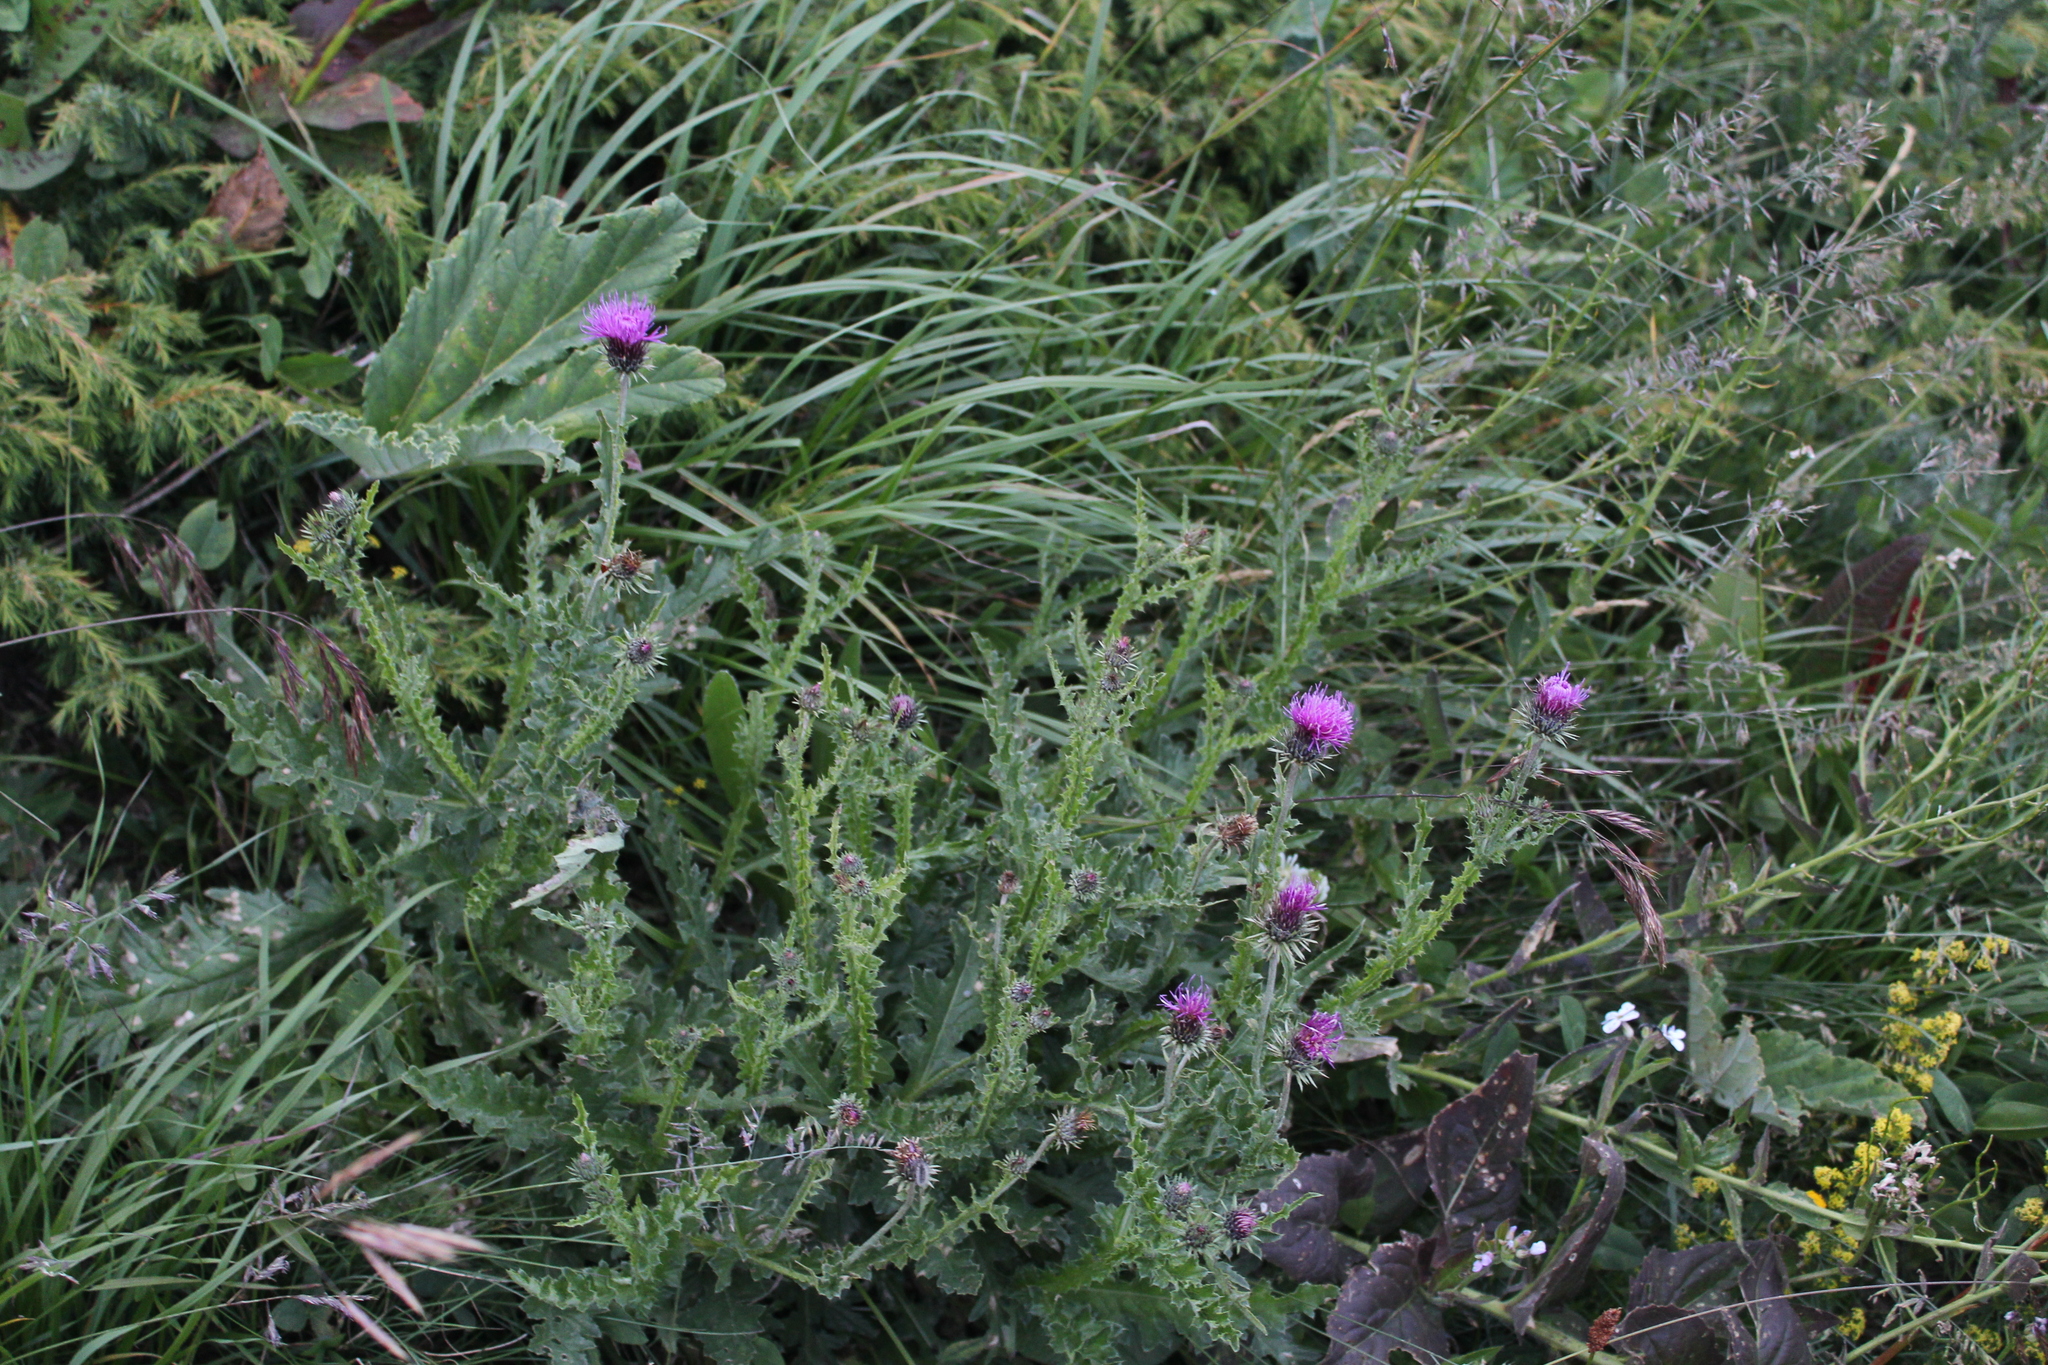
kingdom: Plantae
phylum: Tracheophyta
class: Magnoliopsida
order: Asterales
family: Asteraceae
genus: Carduus
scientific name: Carduus adpressus
